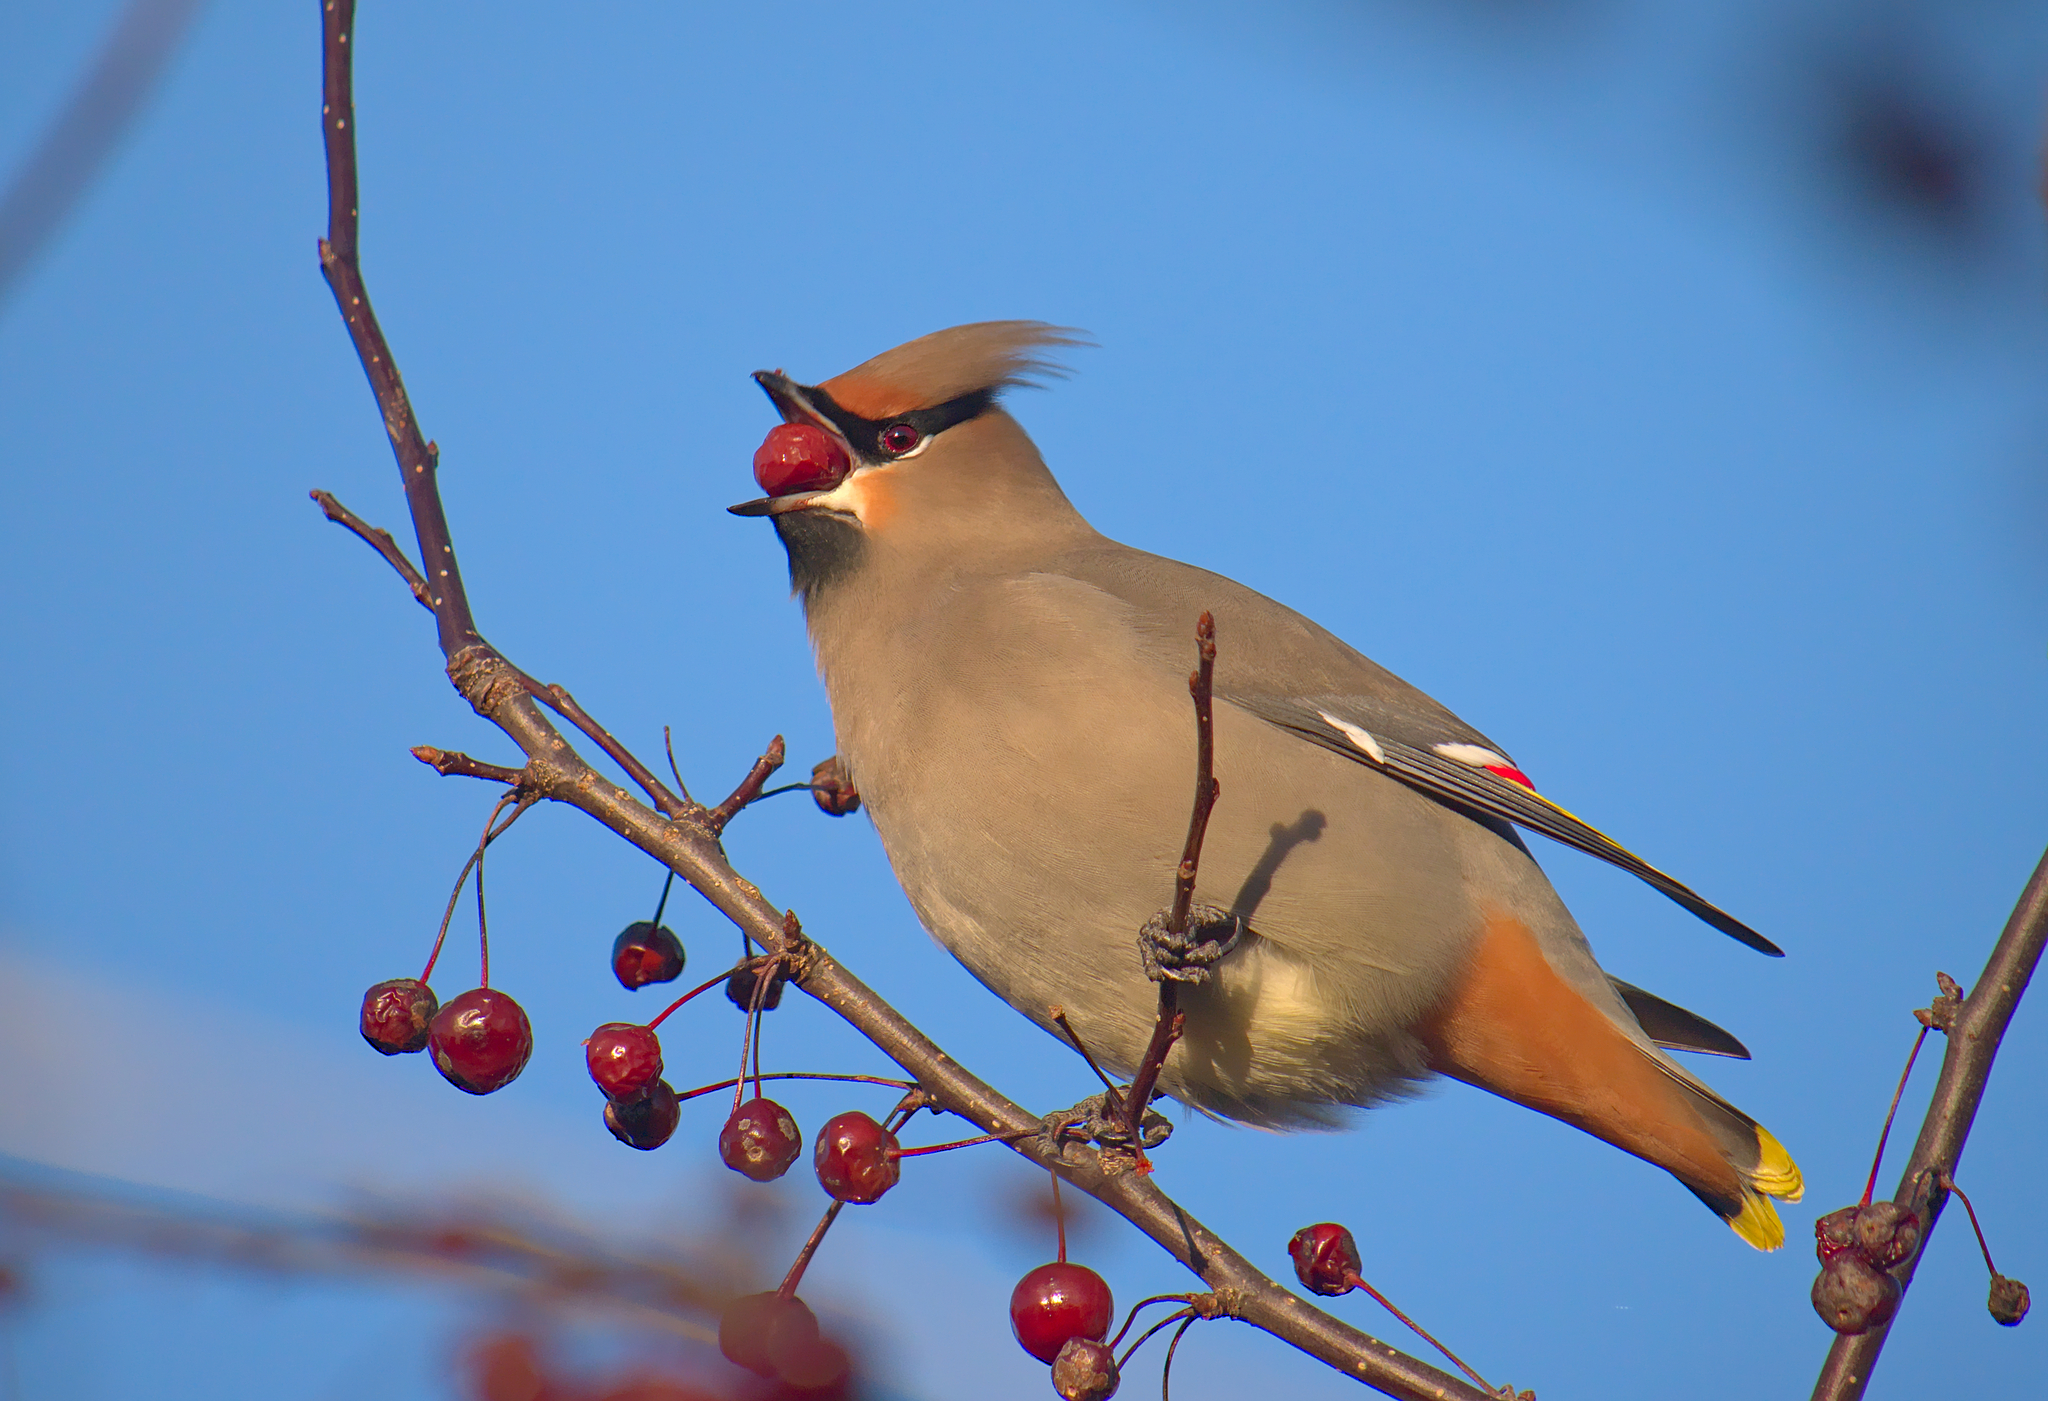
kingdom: Animalia
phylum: Chordata
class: Aves
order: Passeriformes
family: Bombycillidae
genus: Bombycilla
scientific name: Bombycilla garrulus
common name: Bohemian waxwing
